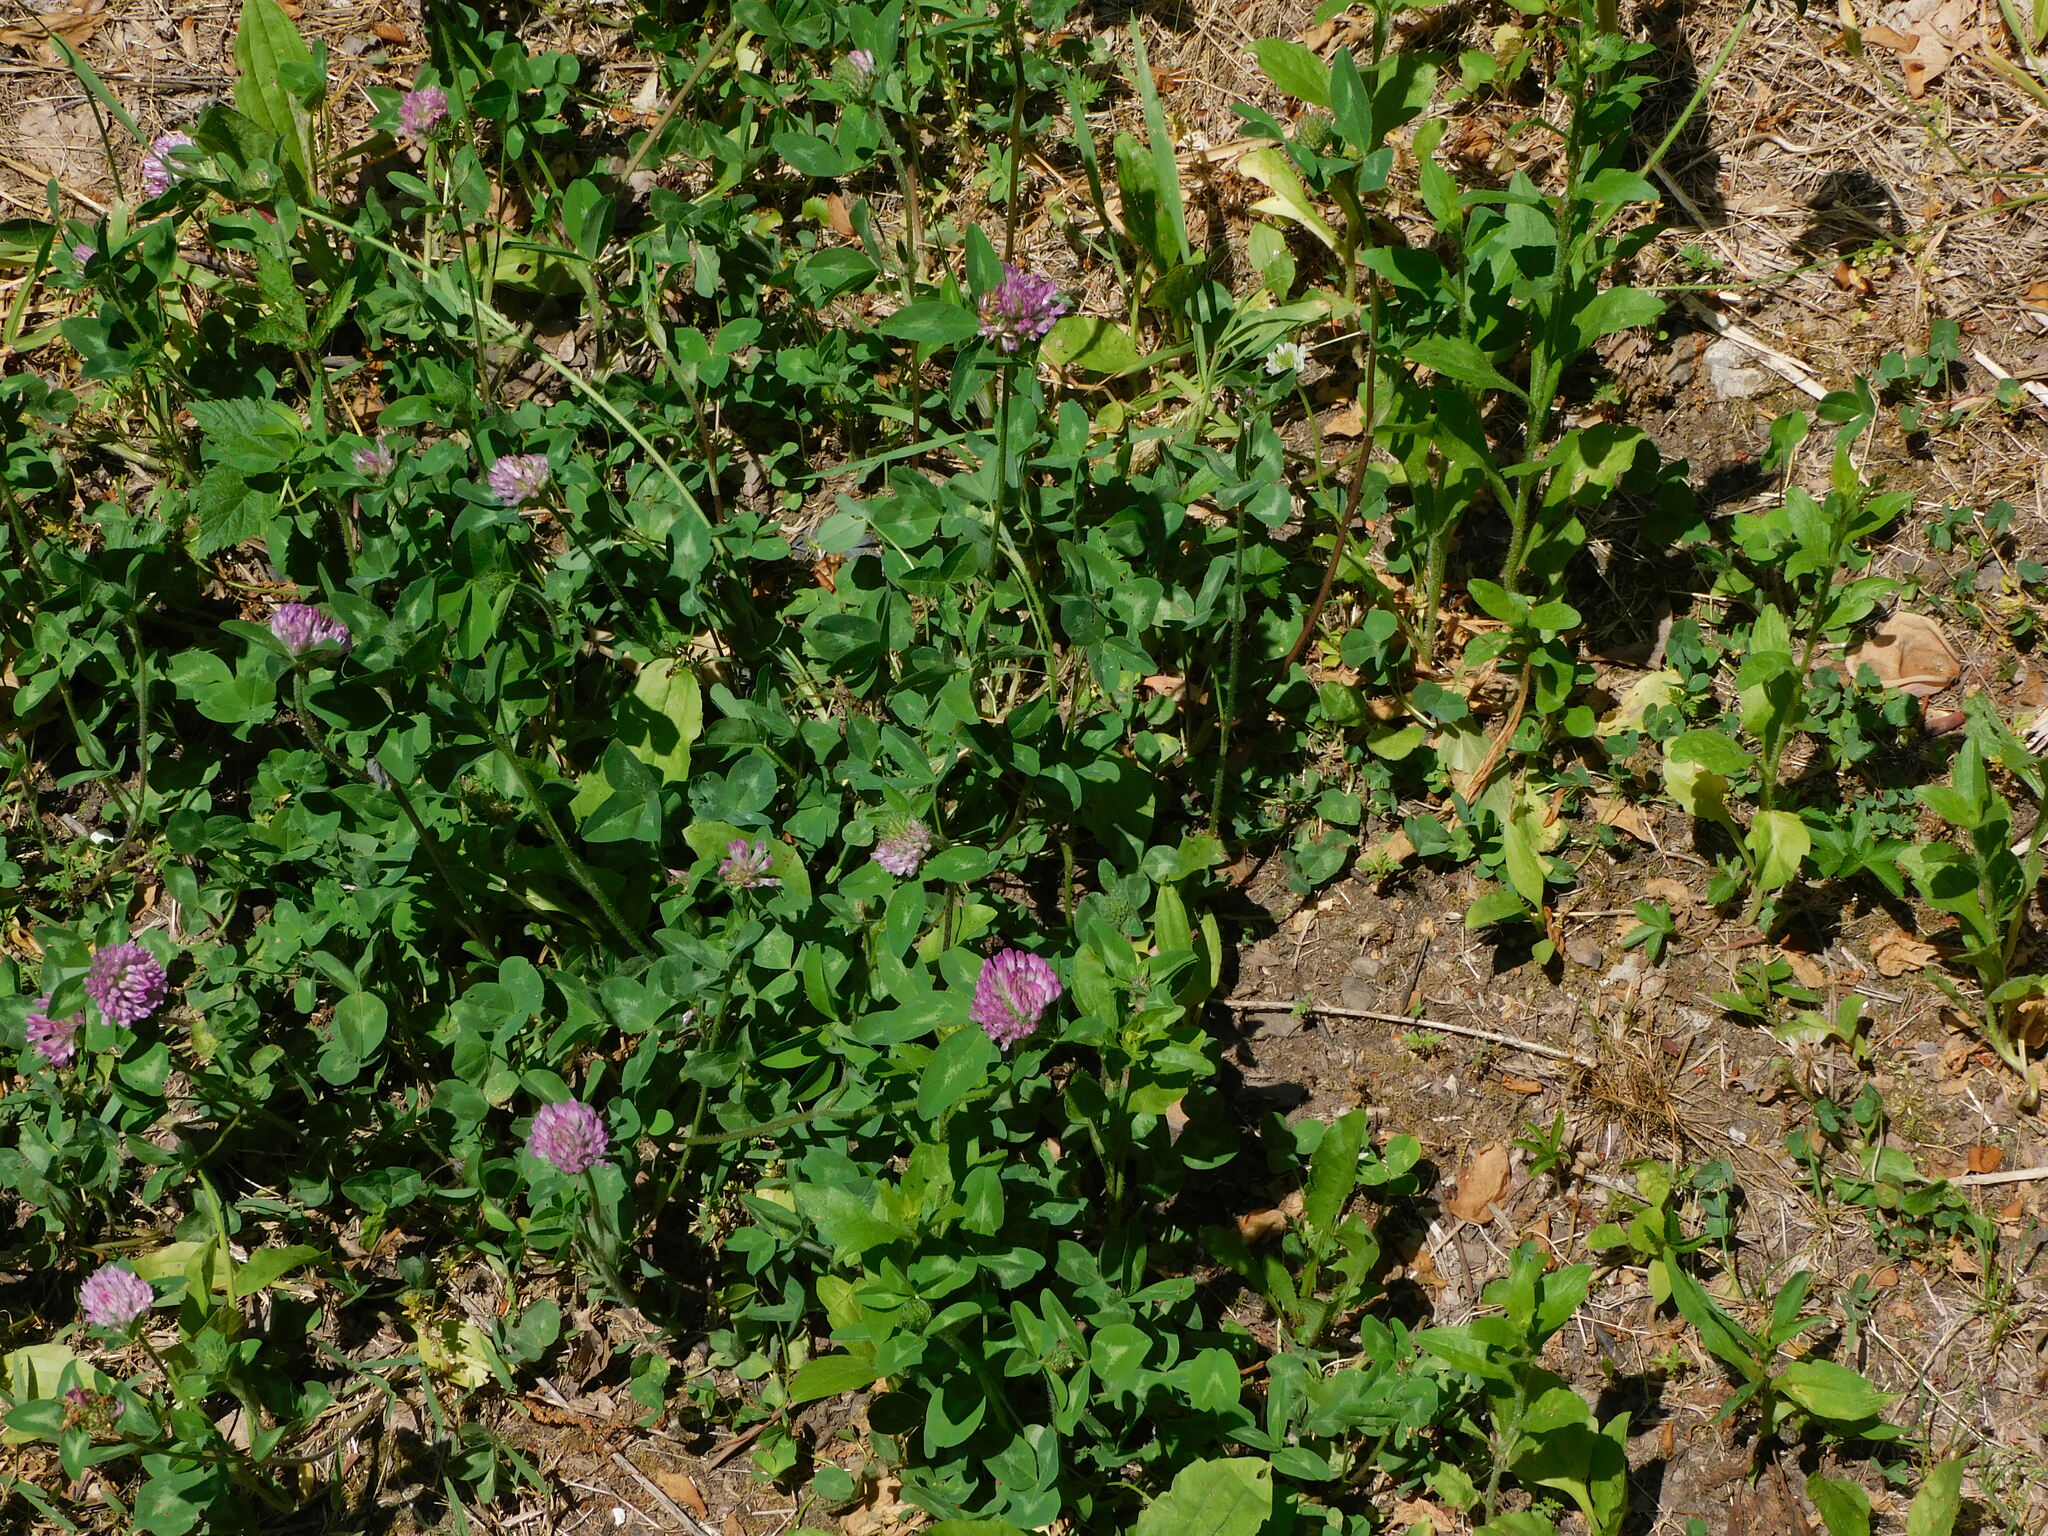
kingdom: Plantae
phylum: Tracheophyta
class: Magnoliopsida
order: Fabales
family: Fabaceae
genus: Trifolium
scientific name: Trifolium pratense
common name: Red clover
